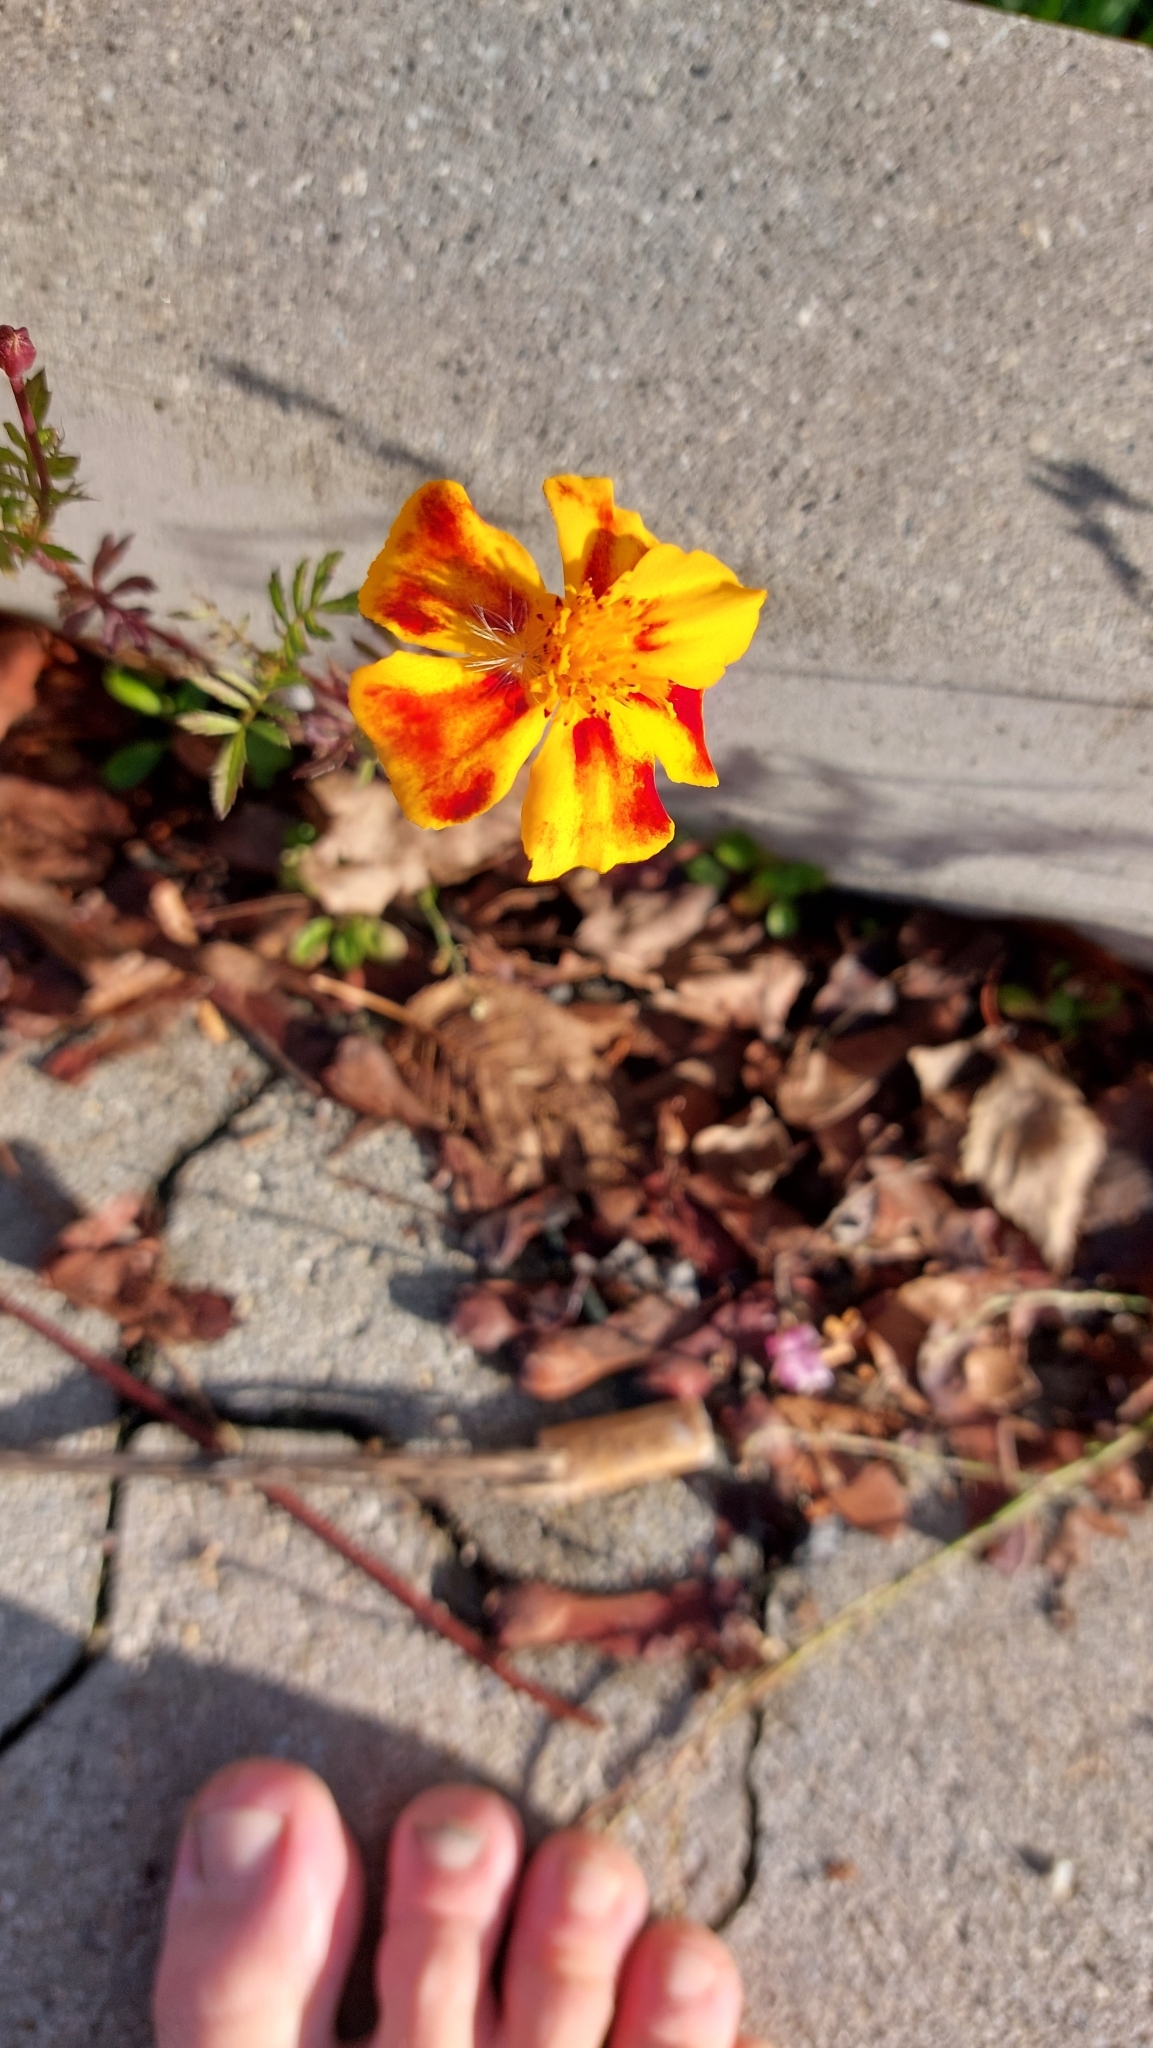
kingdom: Plantae
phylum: Tracheophyta
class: Magnoliopsida
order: Asterales
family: Asteraceae
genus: Tagetes
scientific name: Tagetes erecta
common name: African marigold
